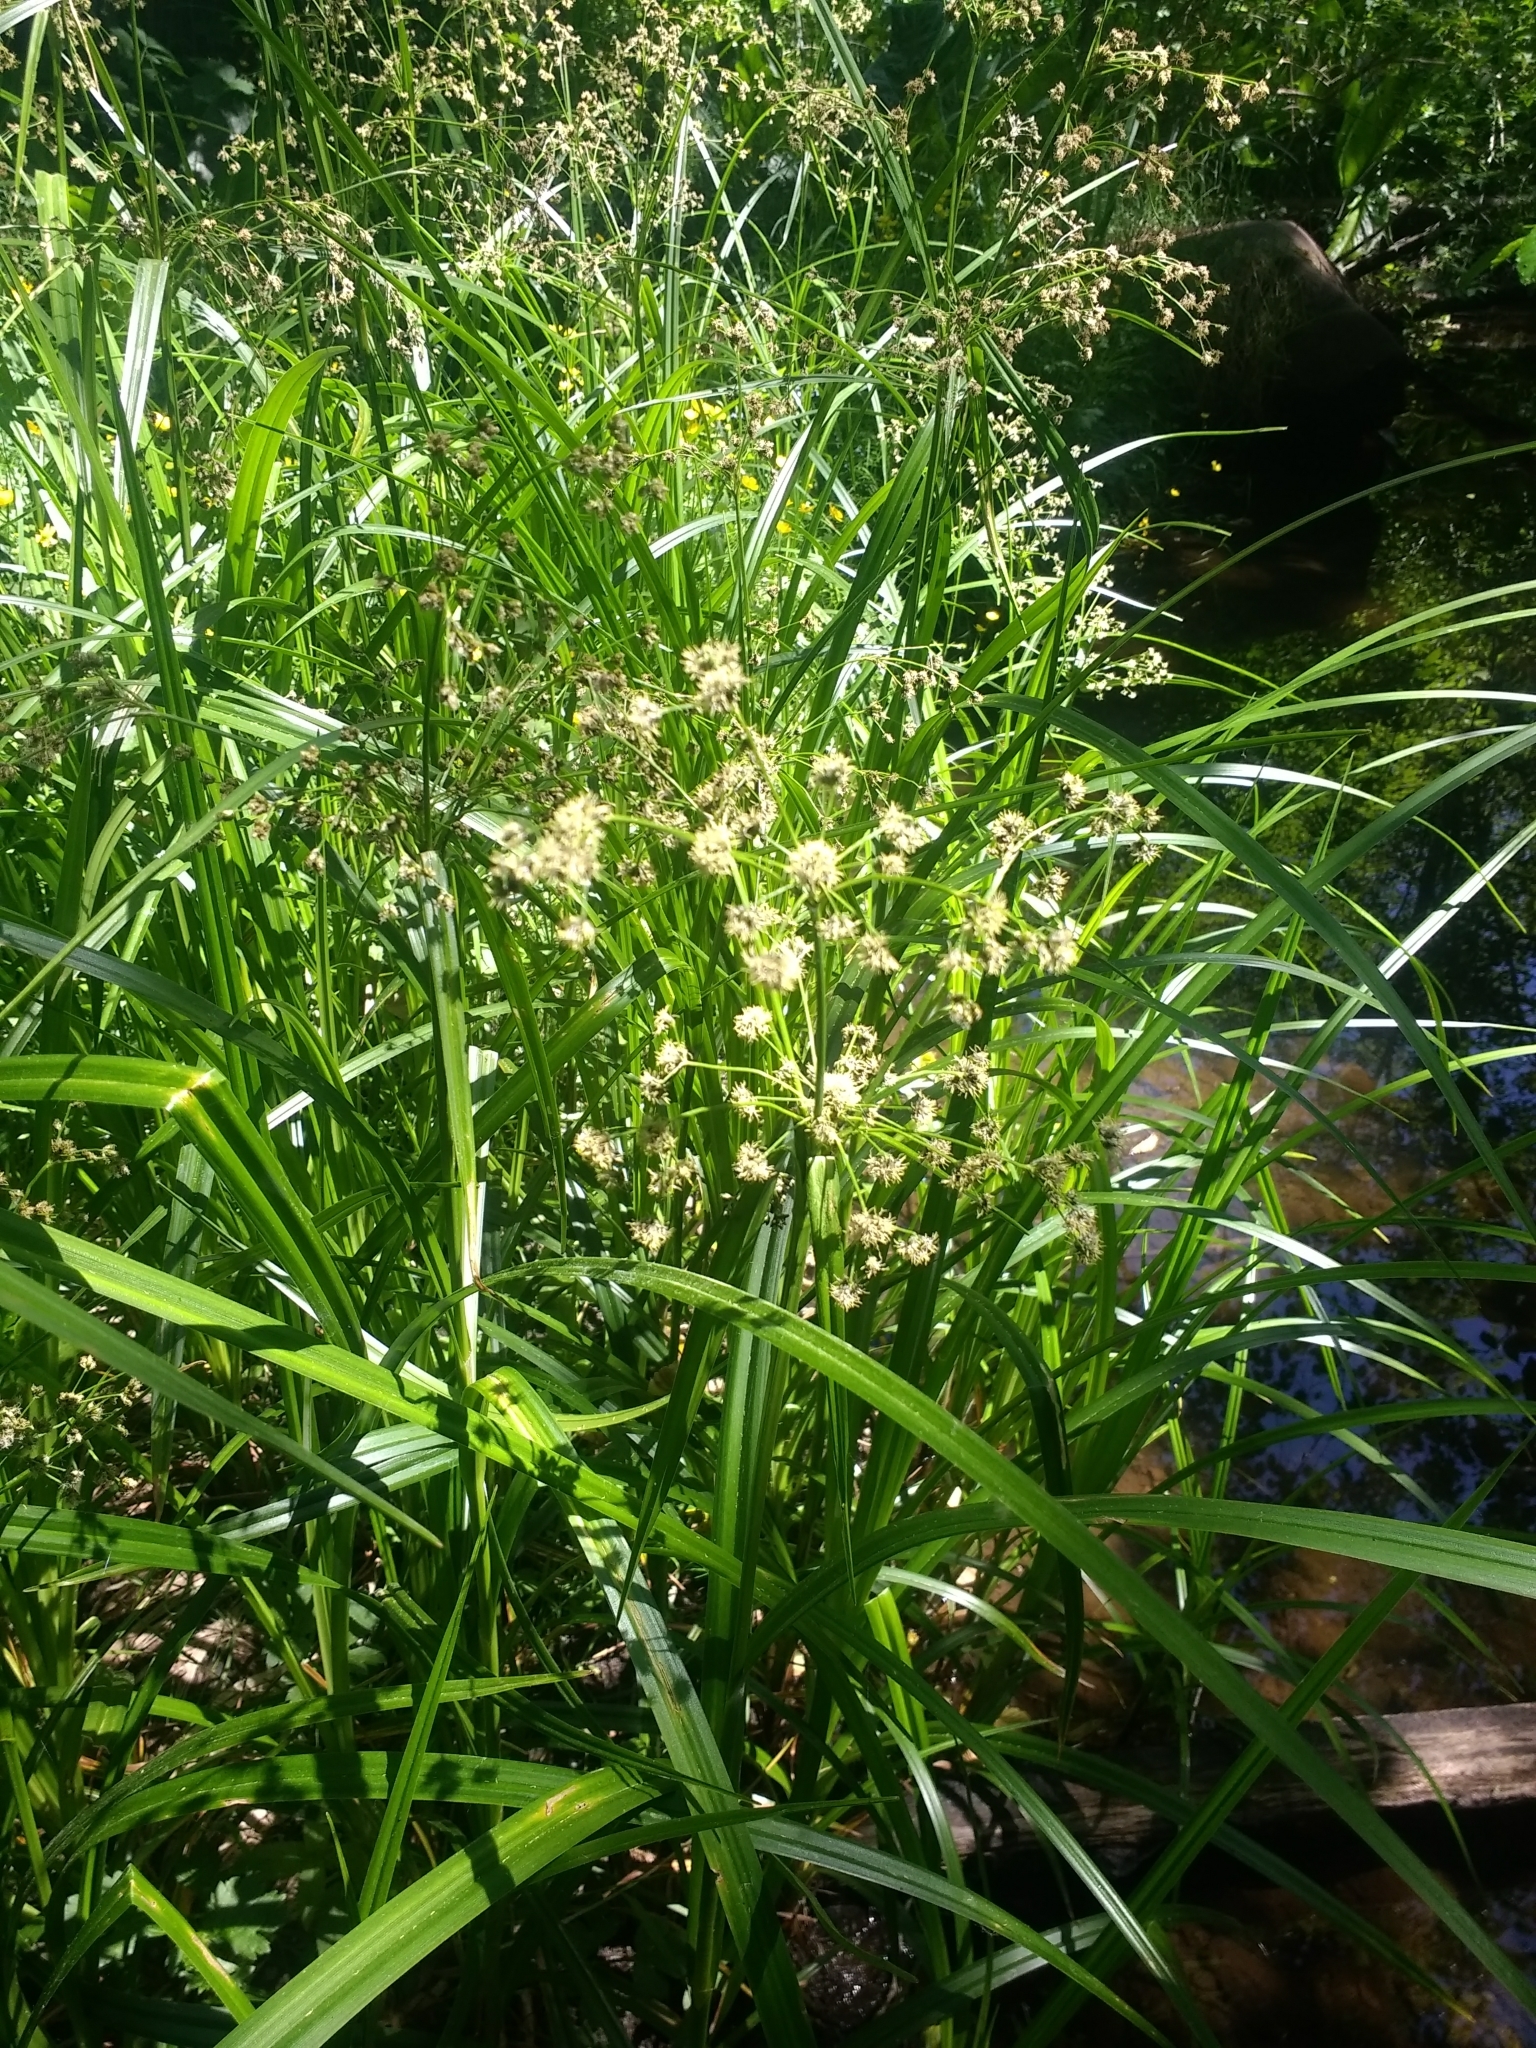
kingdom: Plantae
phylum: Tracheophyta
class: Liliopsida
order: Poales
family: Cyperaceae
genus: Scirpus
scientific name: Scirpus microcarpus
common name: Panicled bulrush
